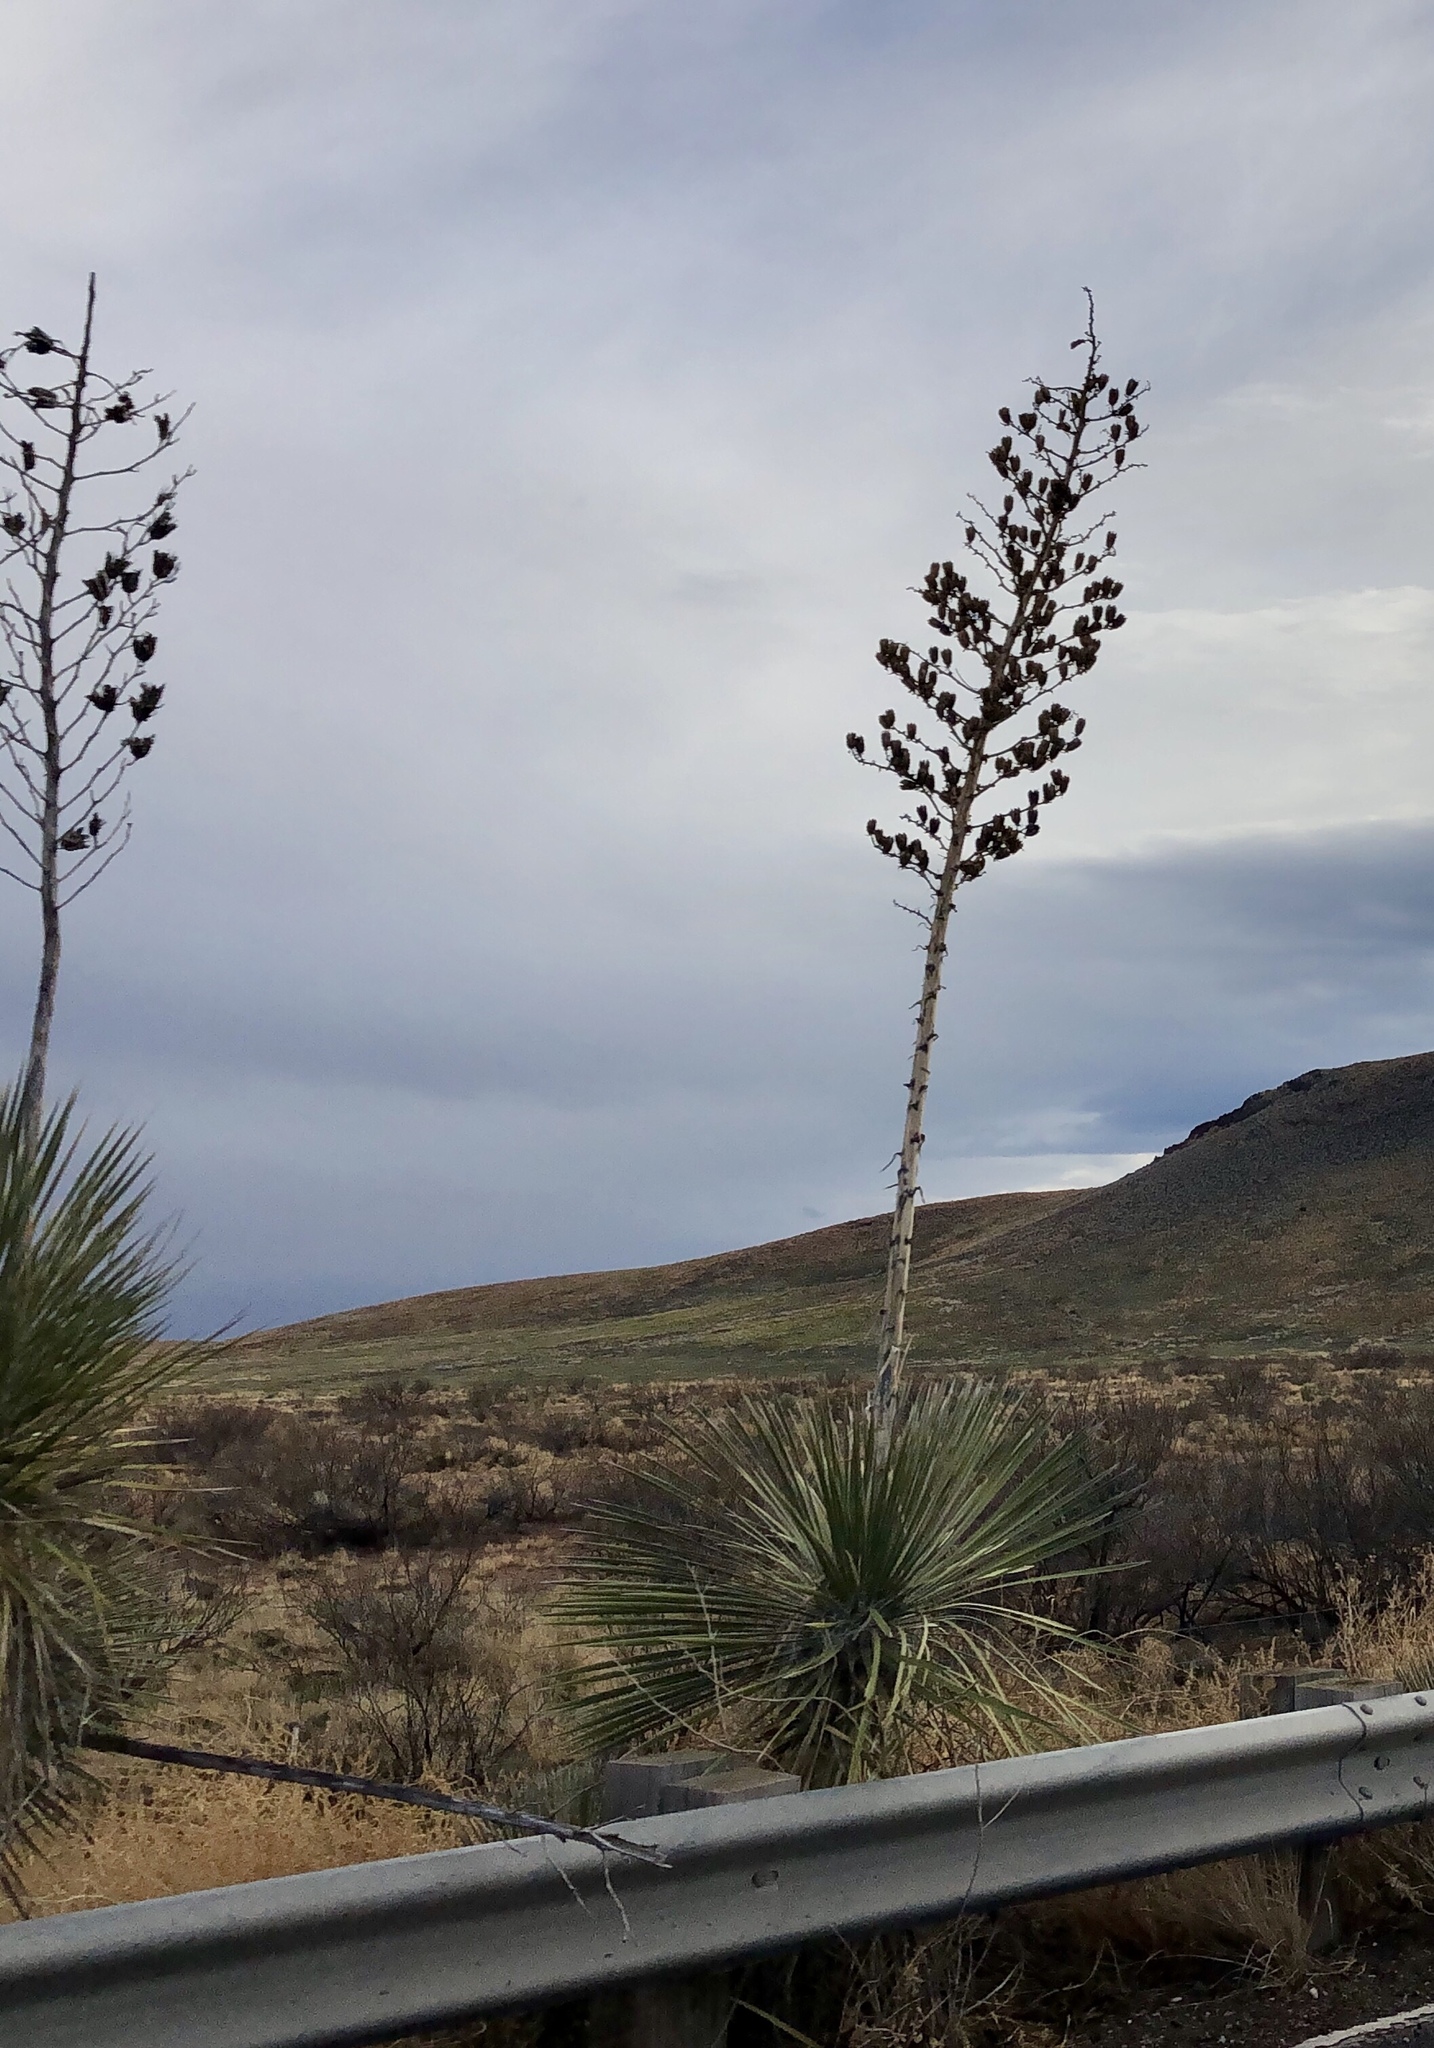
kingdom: Plantae
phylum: Tracheophyta
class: Liliopsida
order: Asparagales
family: Asparagaceae
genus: Yucca
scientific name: Yucca elata
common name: Palmella
